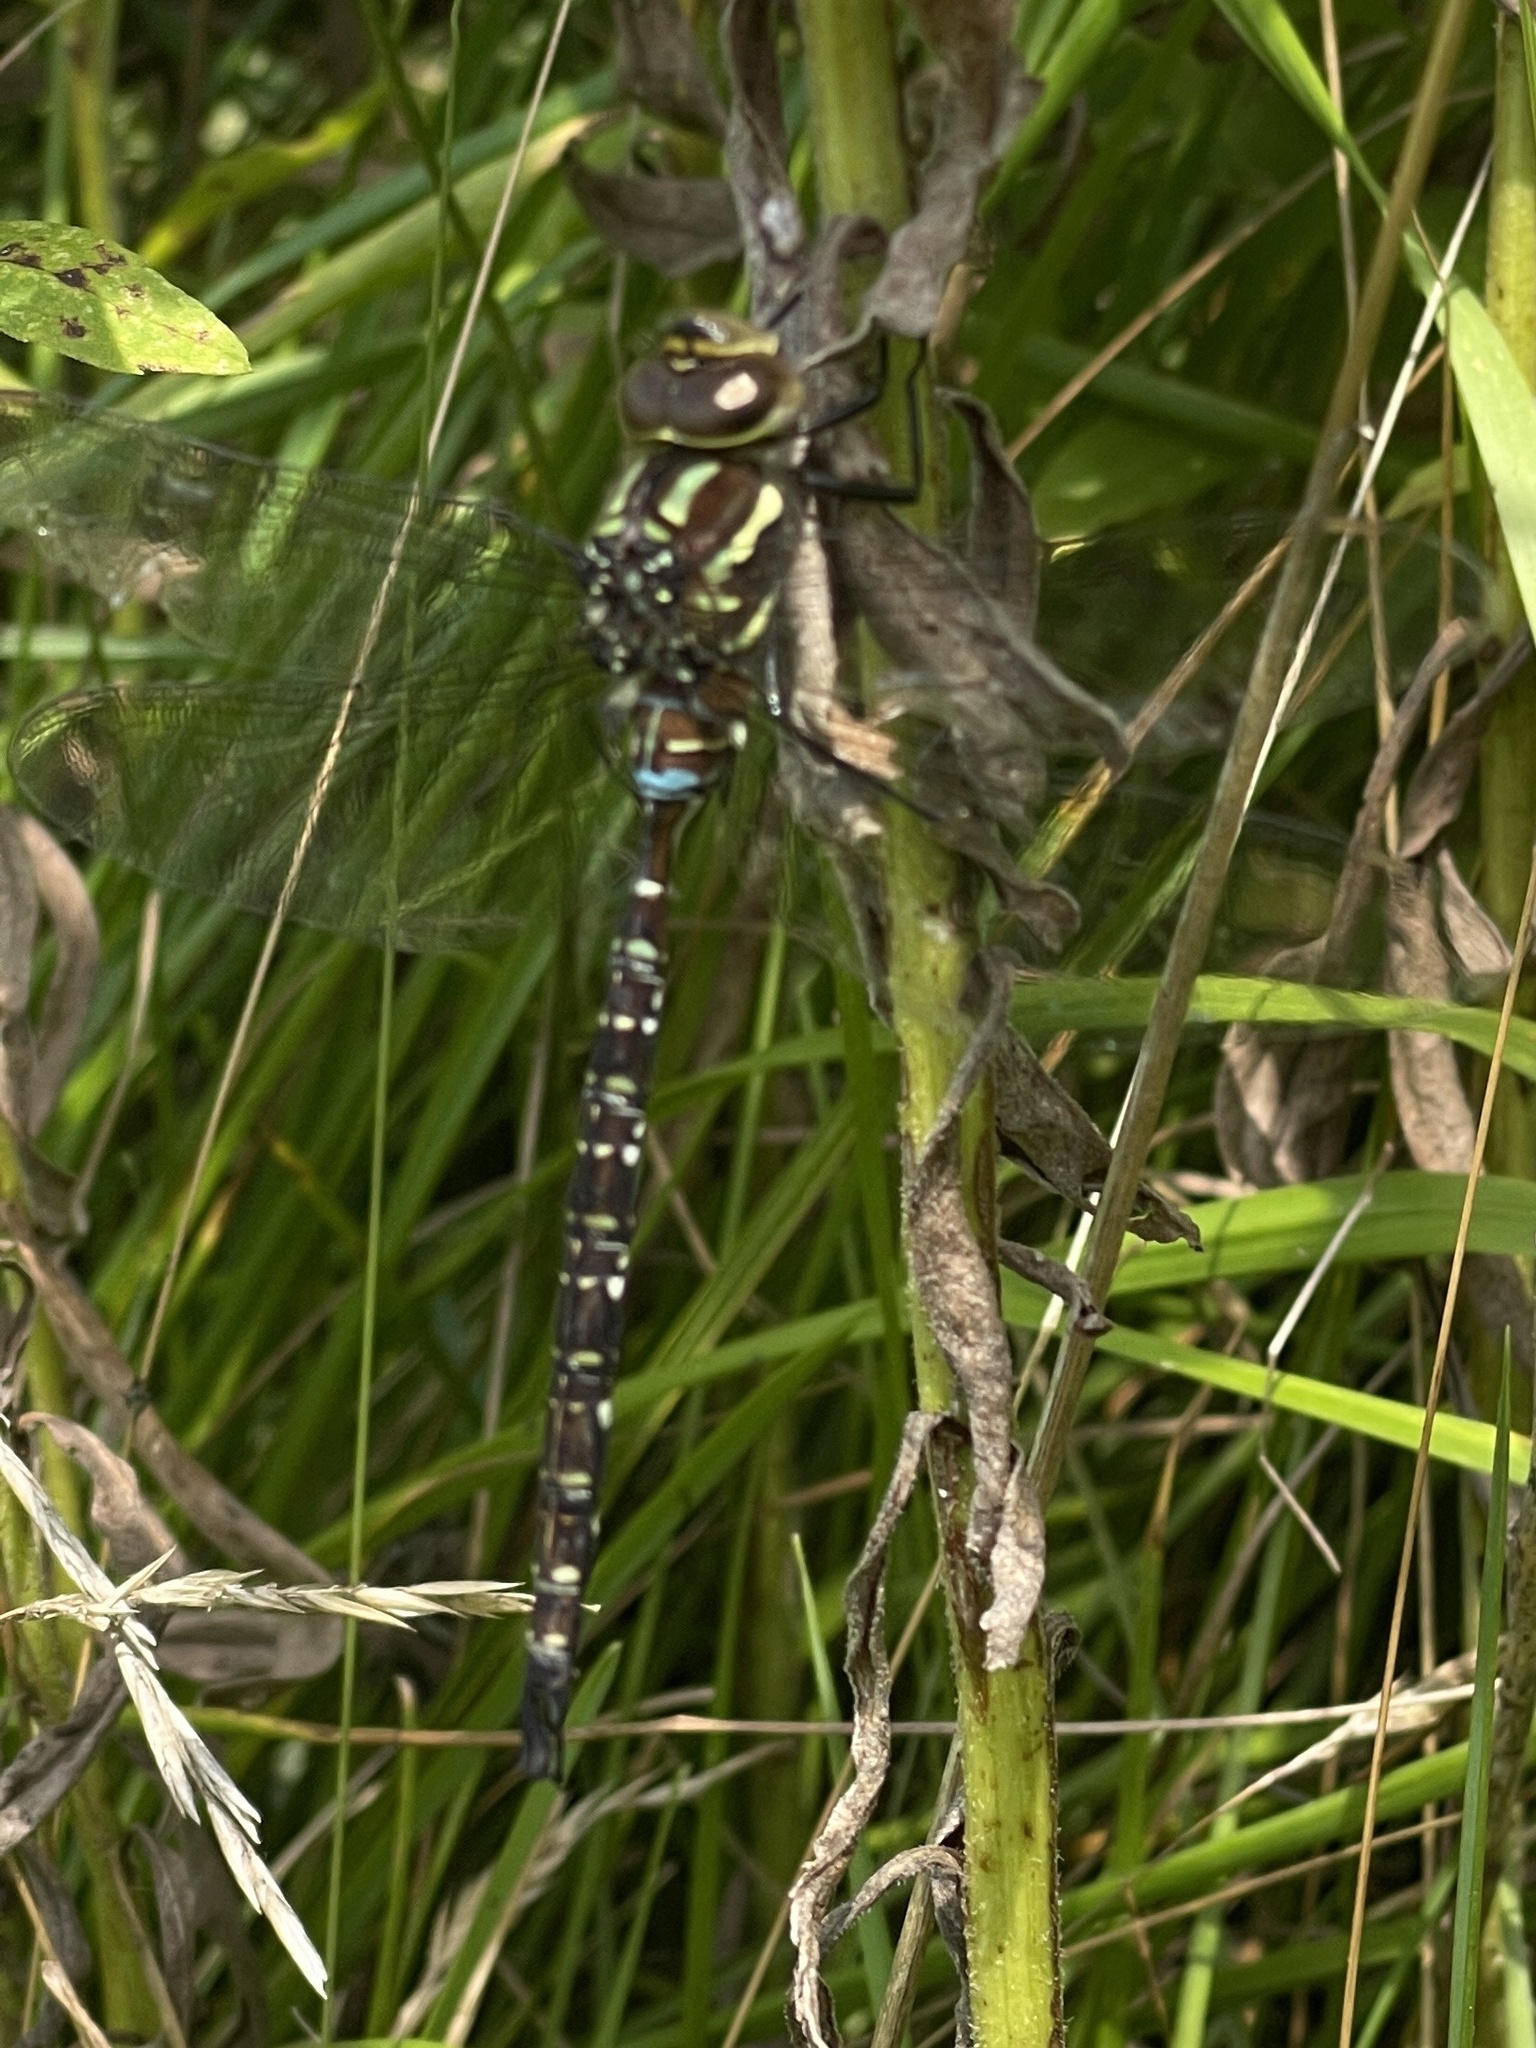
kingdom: Animalia
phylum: Arthropoda
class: Insecta
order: Odonata
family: Aeshnidae
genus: Aeshna
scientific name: Aeshna umbrosa
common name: Shadow darner
